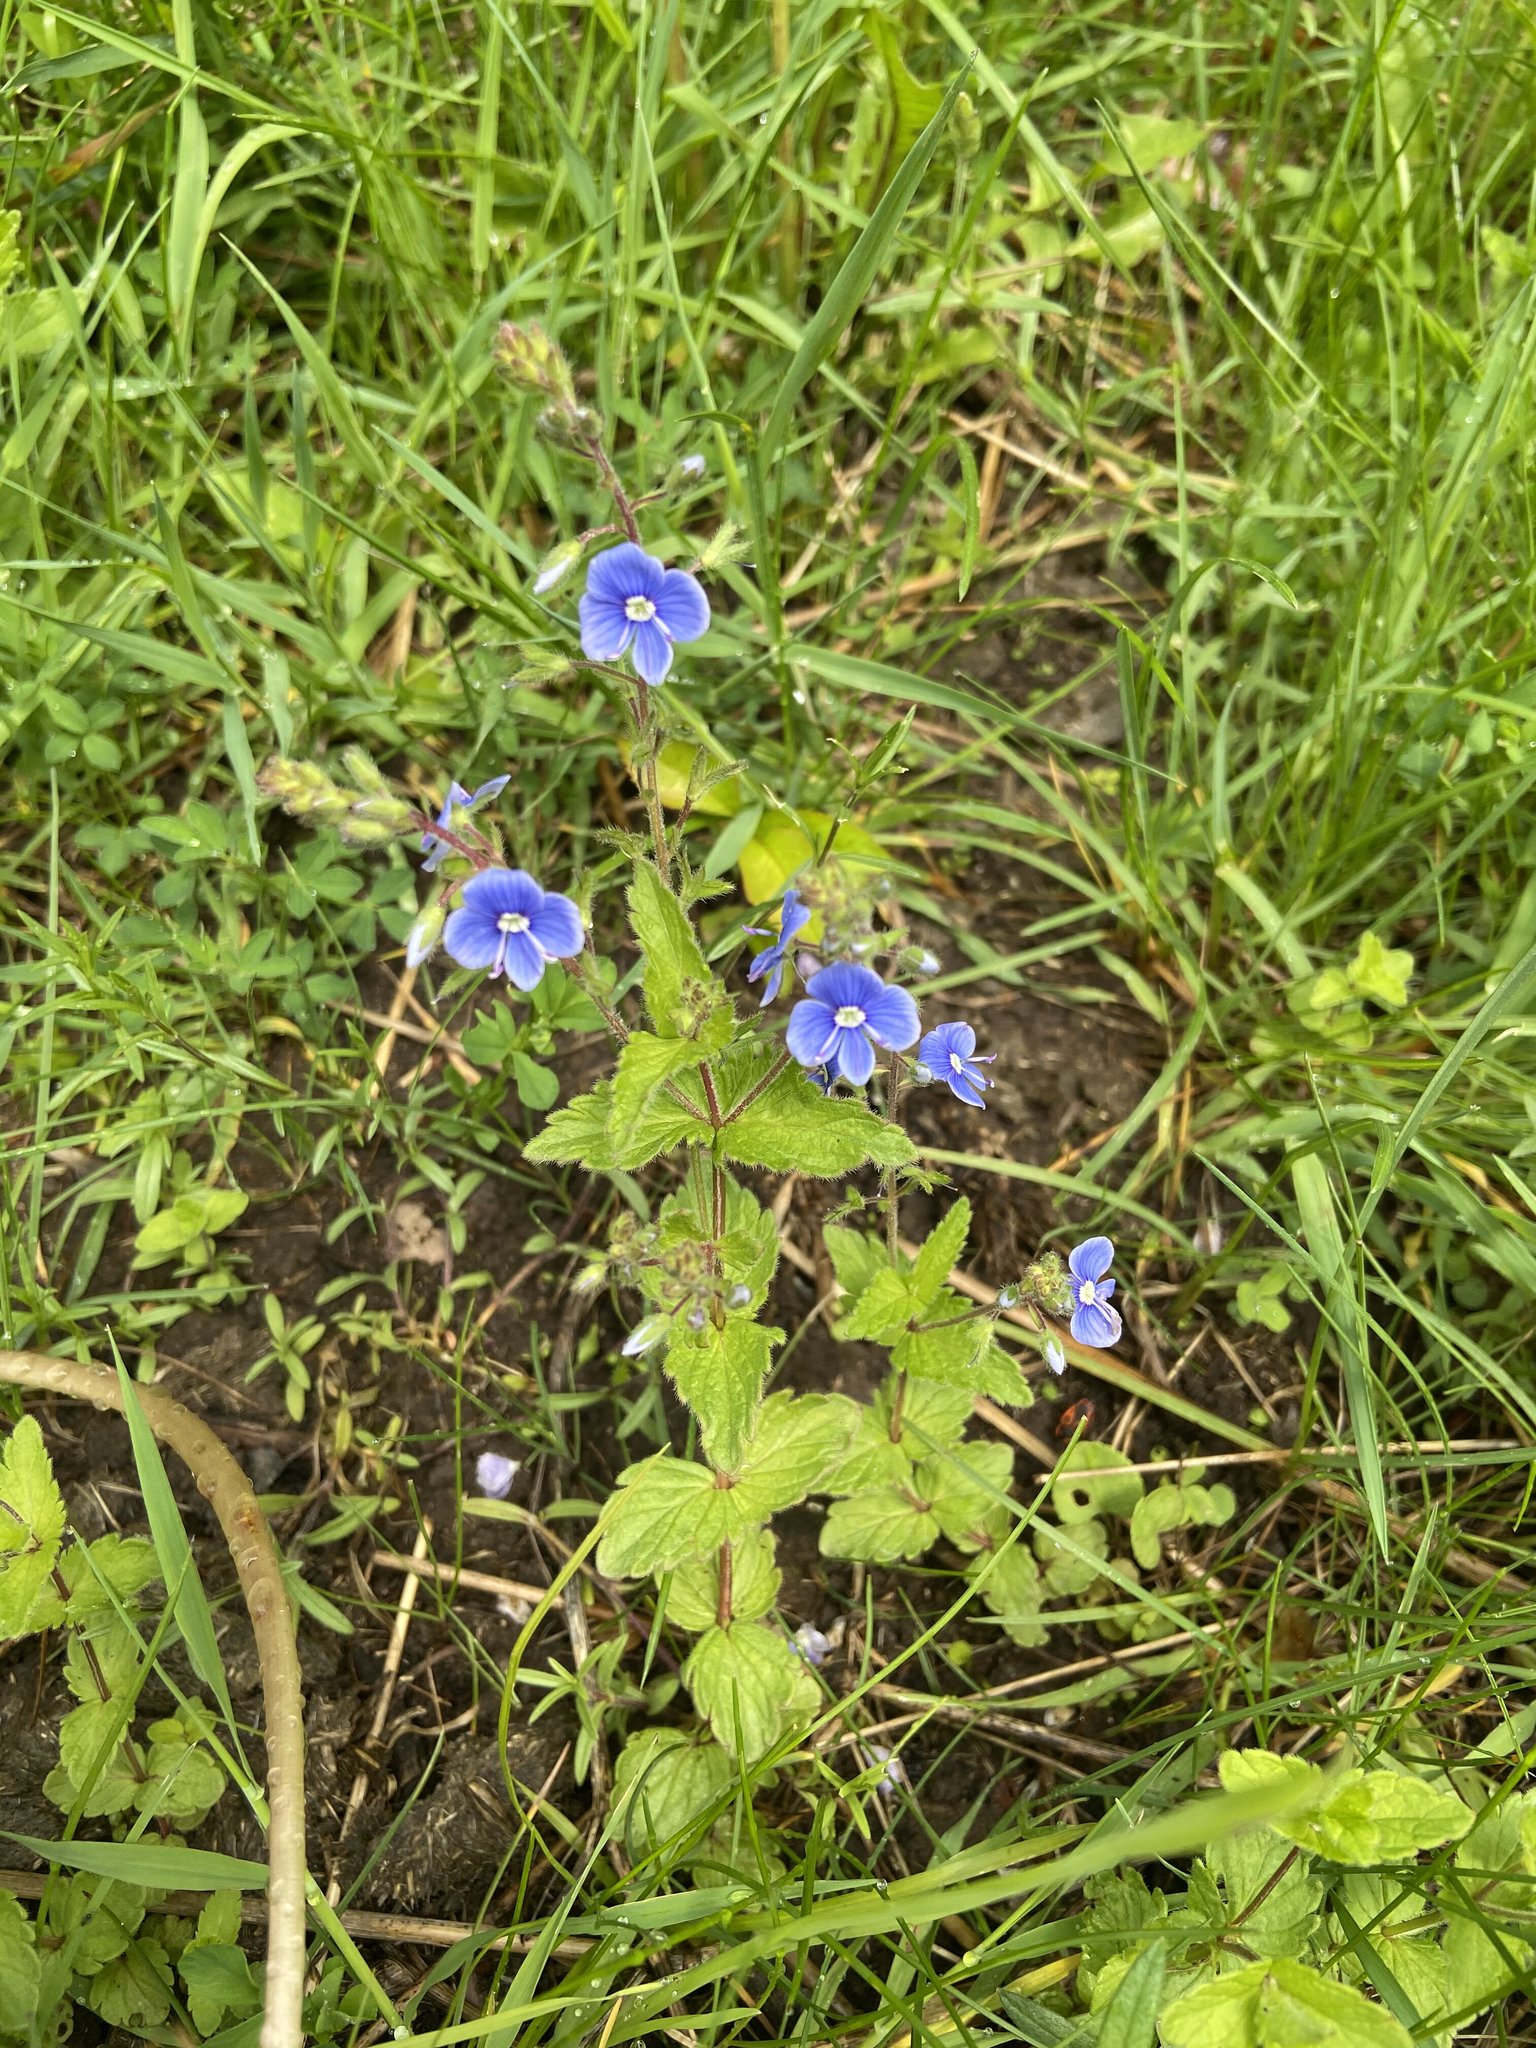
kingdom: Plantae
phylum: Tracheophyta
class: Magnoliopsida
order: Lamiales
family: Plantaginaceae
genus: Veronica
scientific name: Veronica chamaedrys
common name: Germander speedwell
